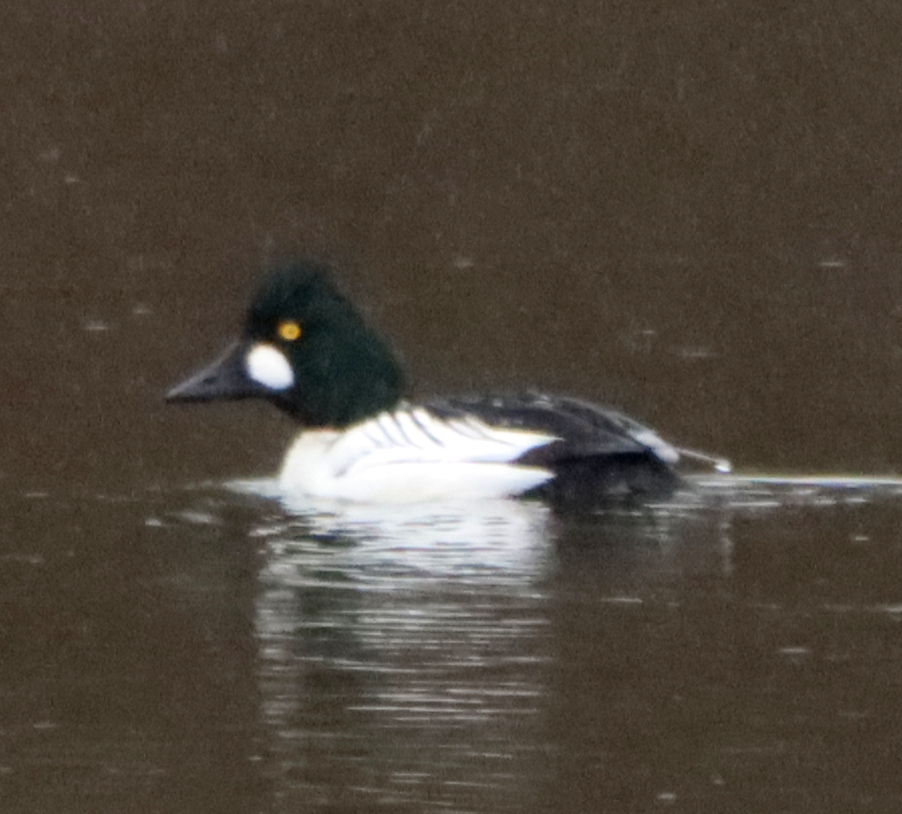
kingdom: Animalia
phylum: Chordata
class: Aves
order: Anseriformes
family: Anatidae
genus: Bucephala
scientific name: Bucephala clangula
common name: Common goldeneye
